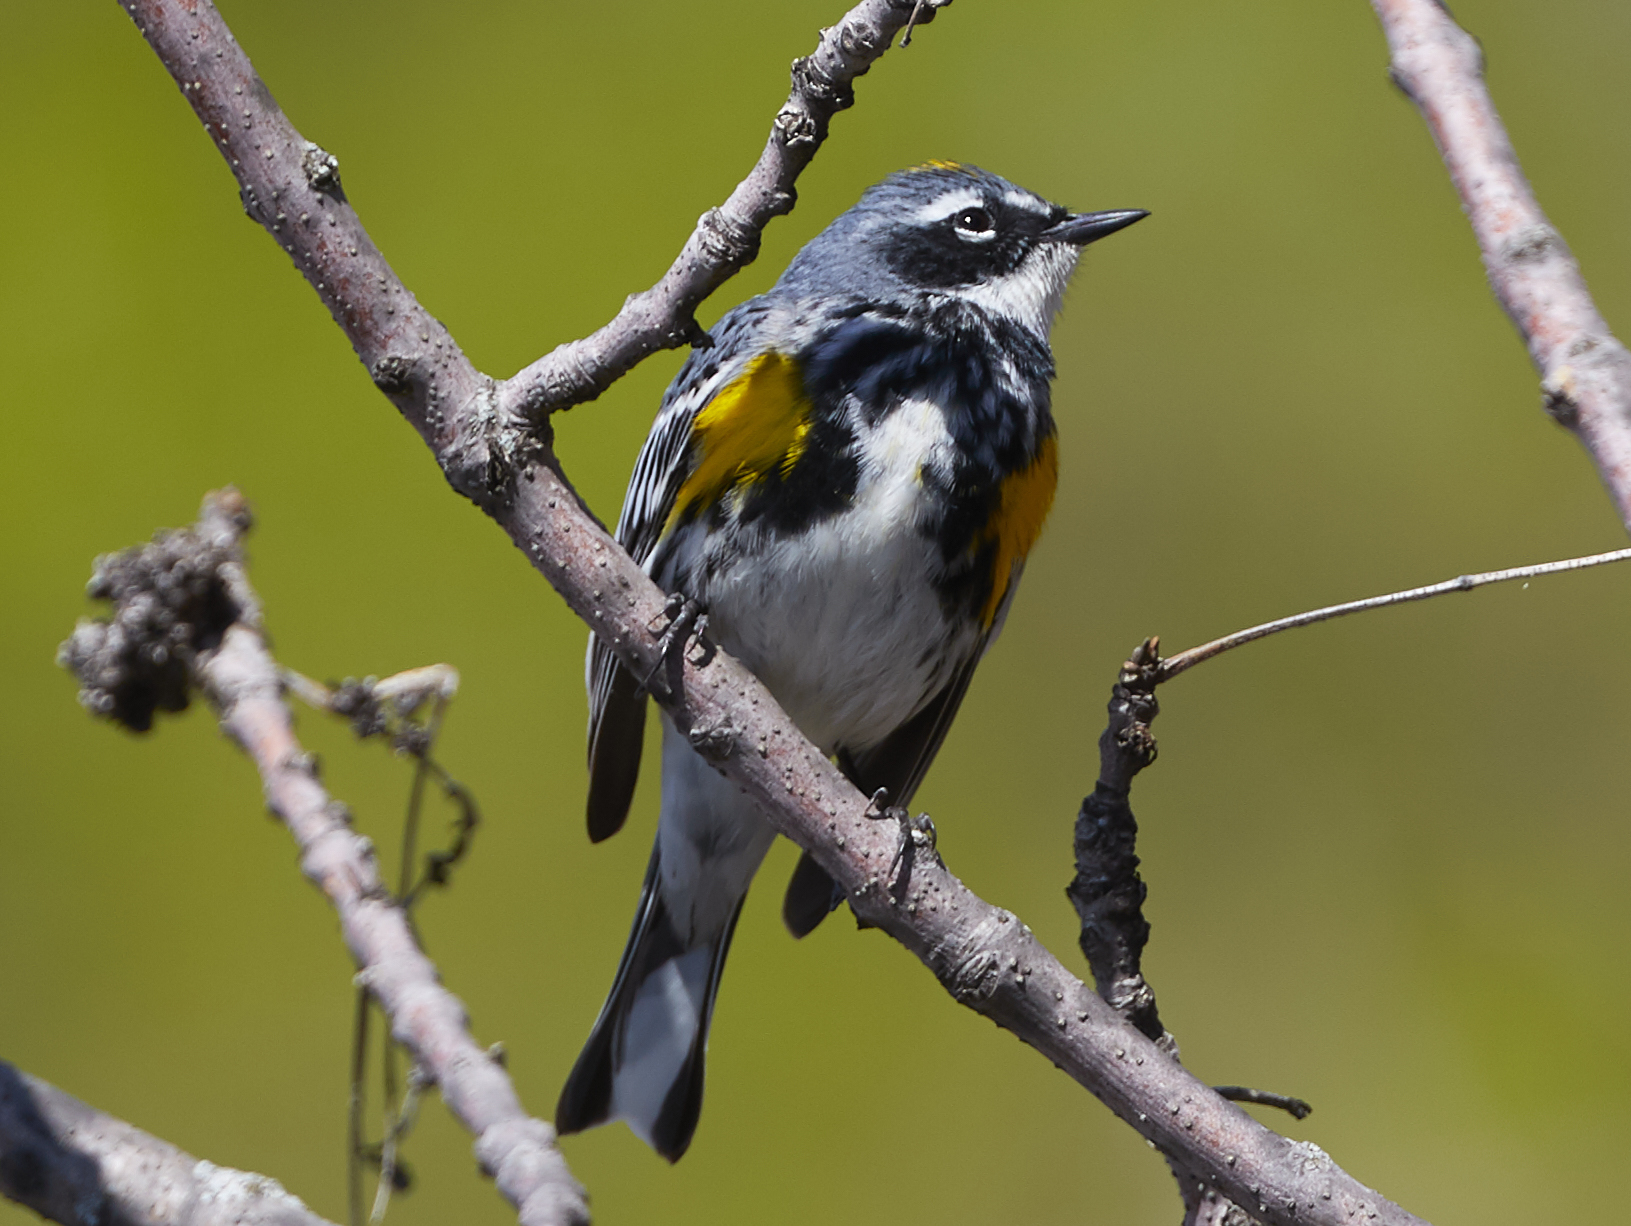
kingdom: Animalia
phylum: Chordata
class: Aves
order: Passeriformes
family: Parulidae
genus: Setophaga
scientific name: Setophaga coronata
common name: Myrtle warbler
